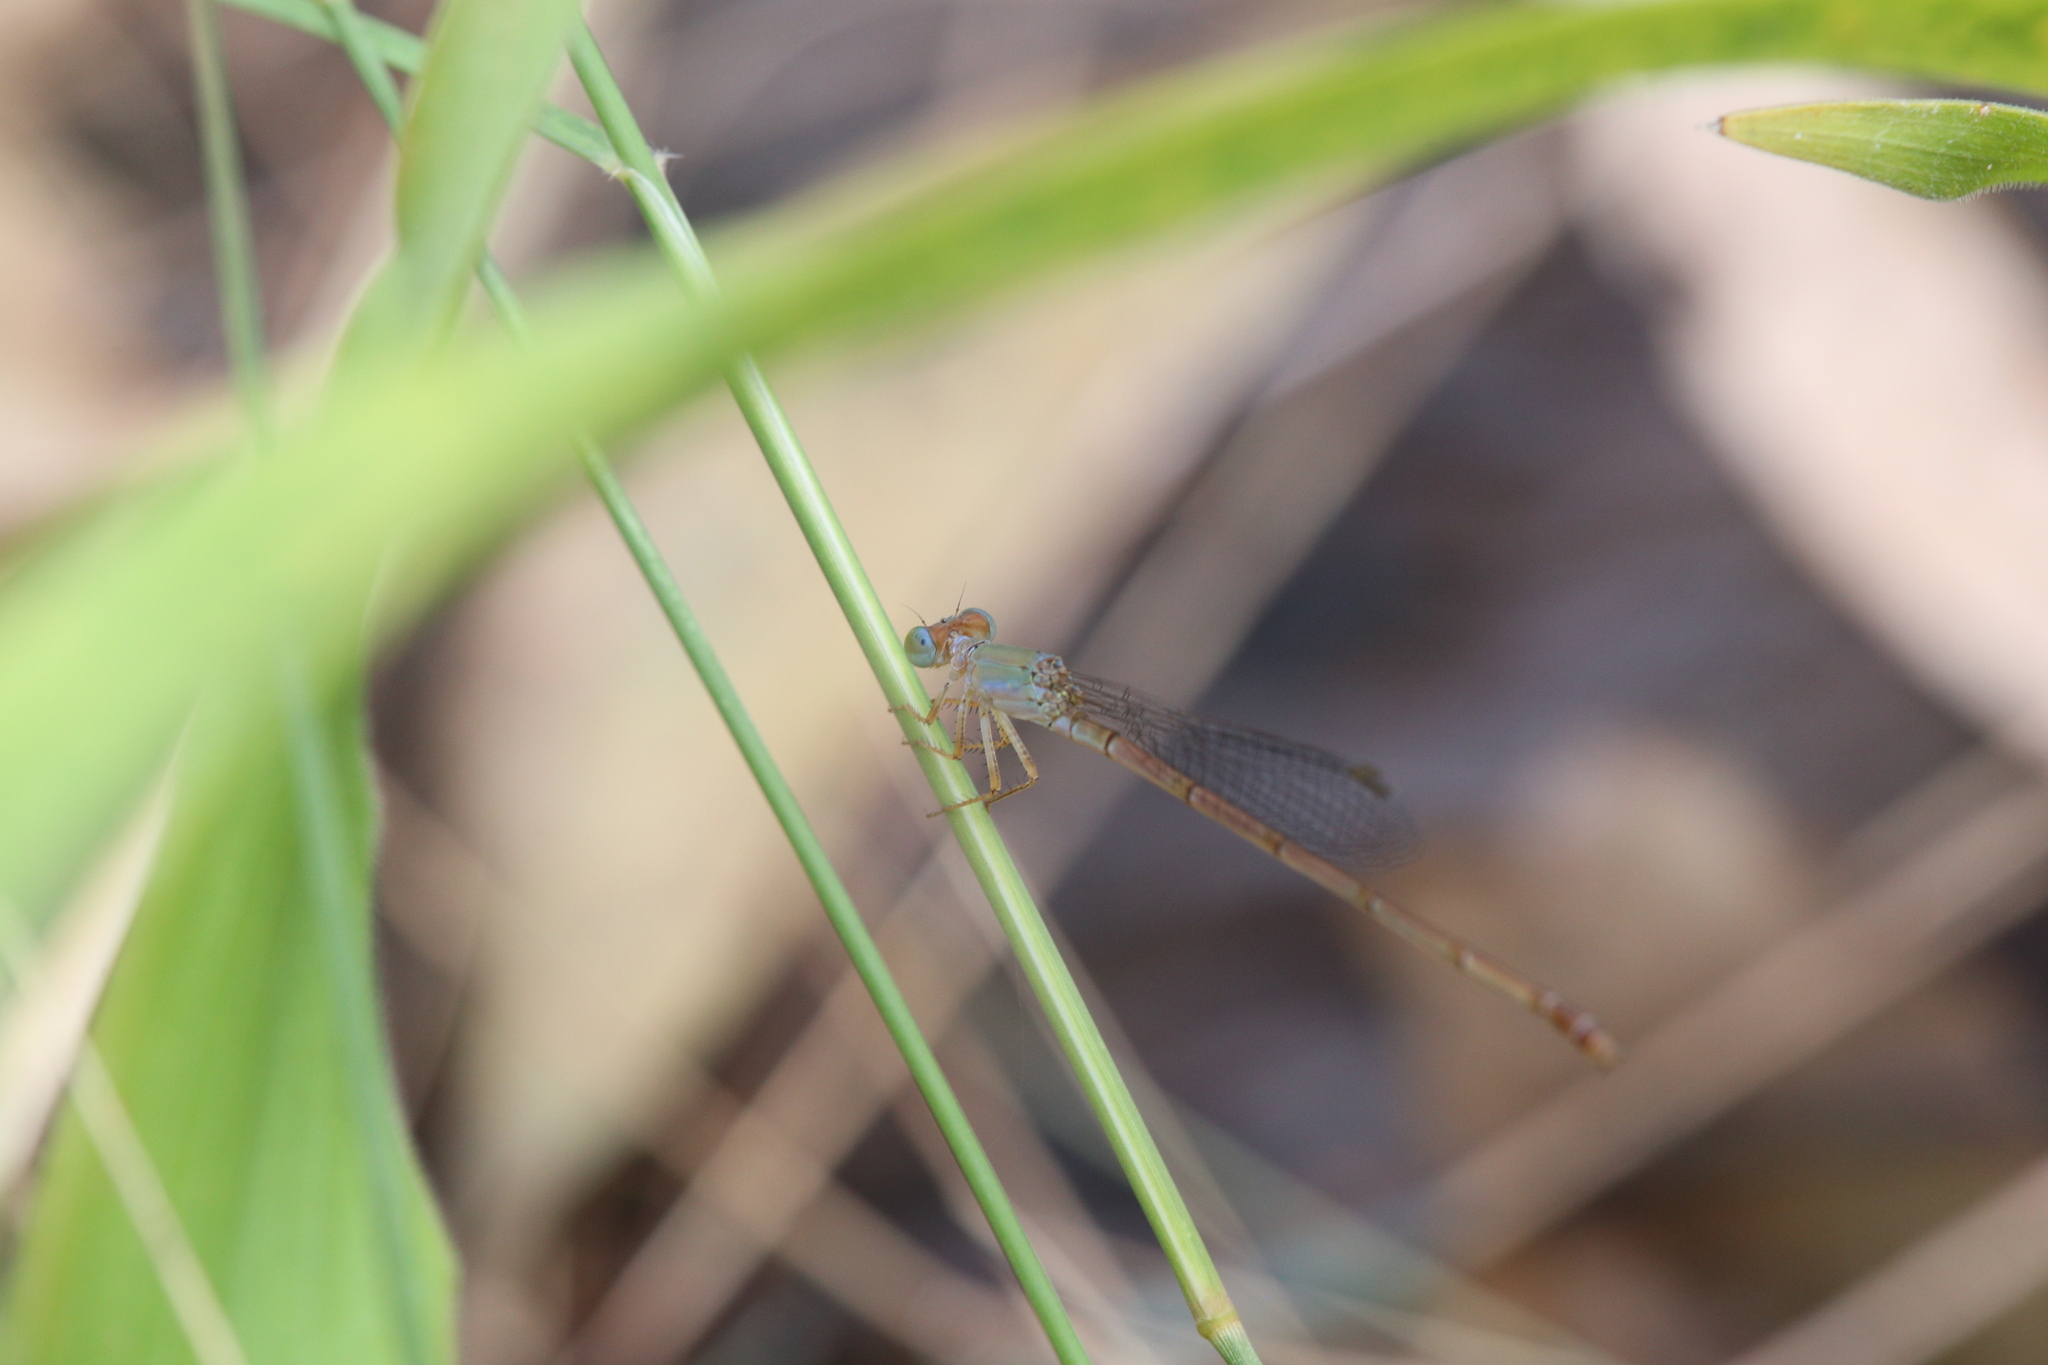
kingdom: Animalia
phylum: Arthropoda
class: Insecta
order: Odonata
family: Coenagrionidae
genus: Ceriagrion
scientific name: Ceriagrion aeruginosum
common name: Redtail
